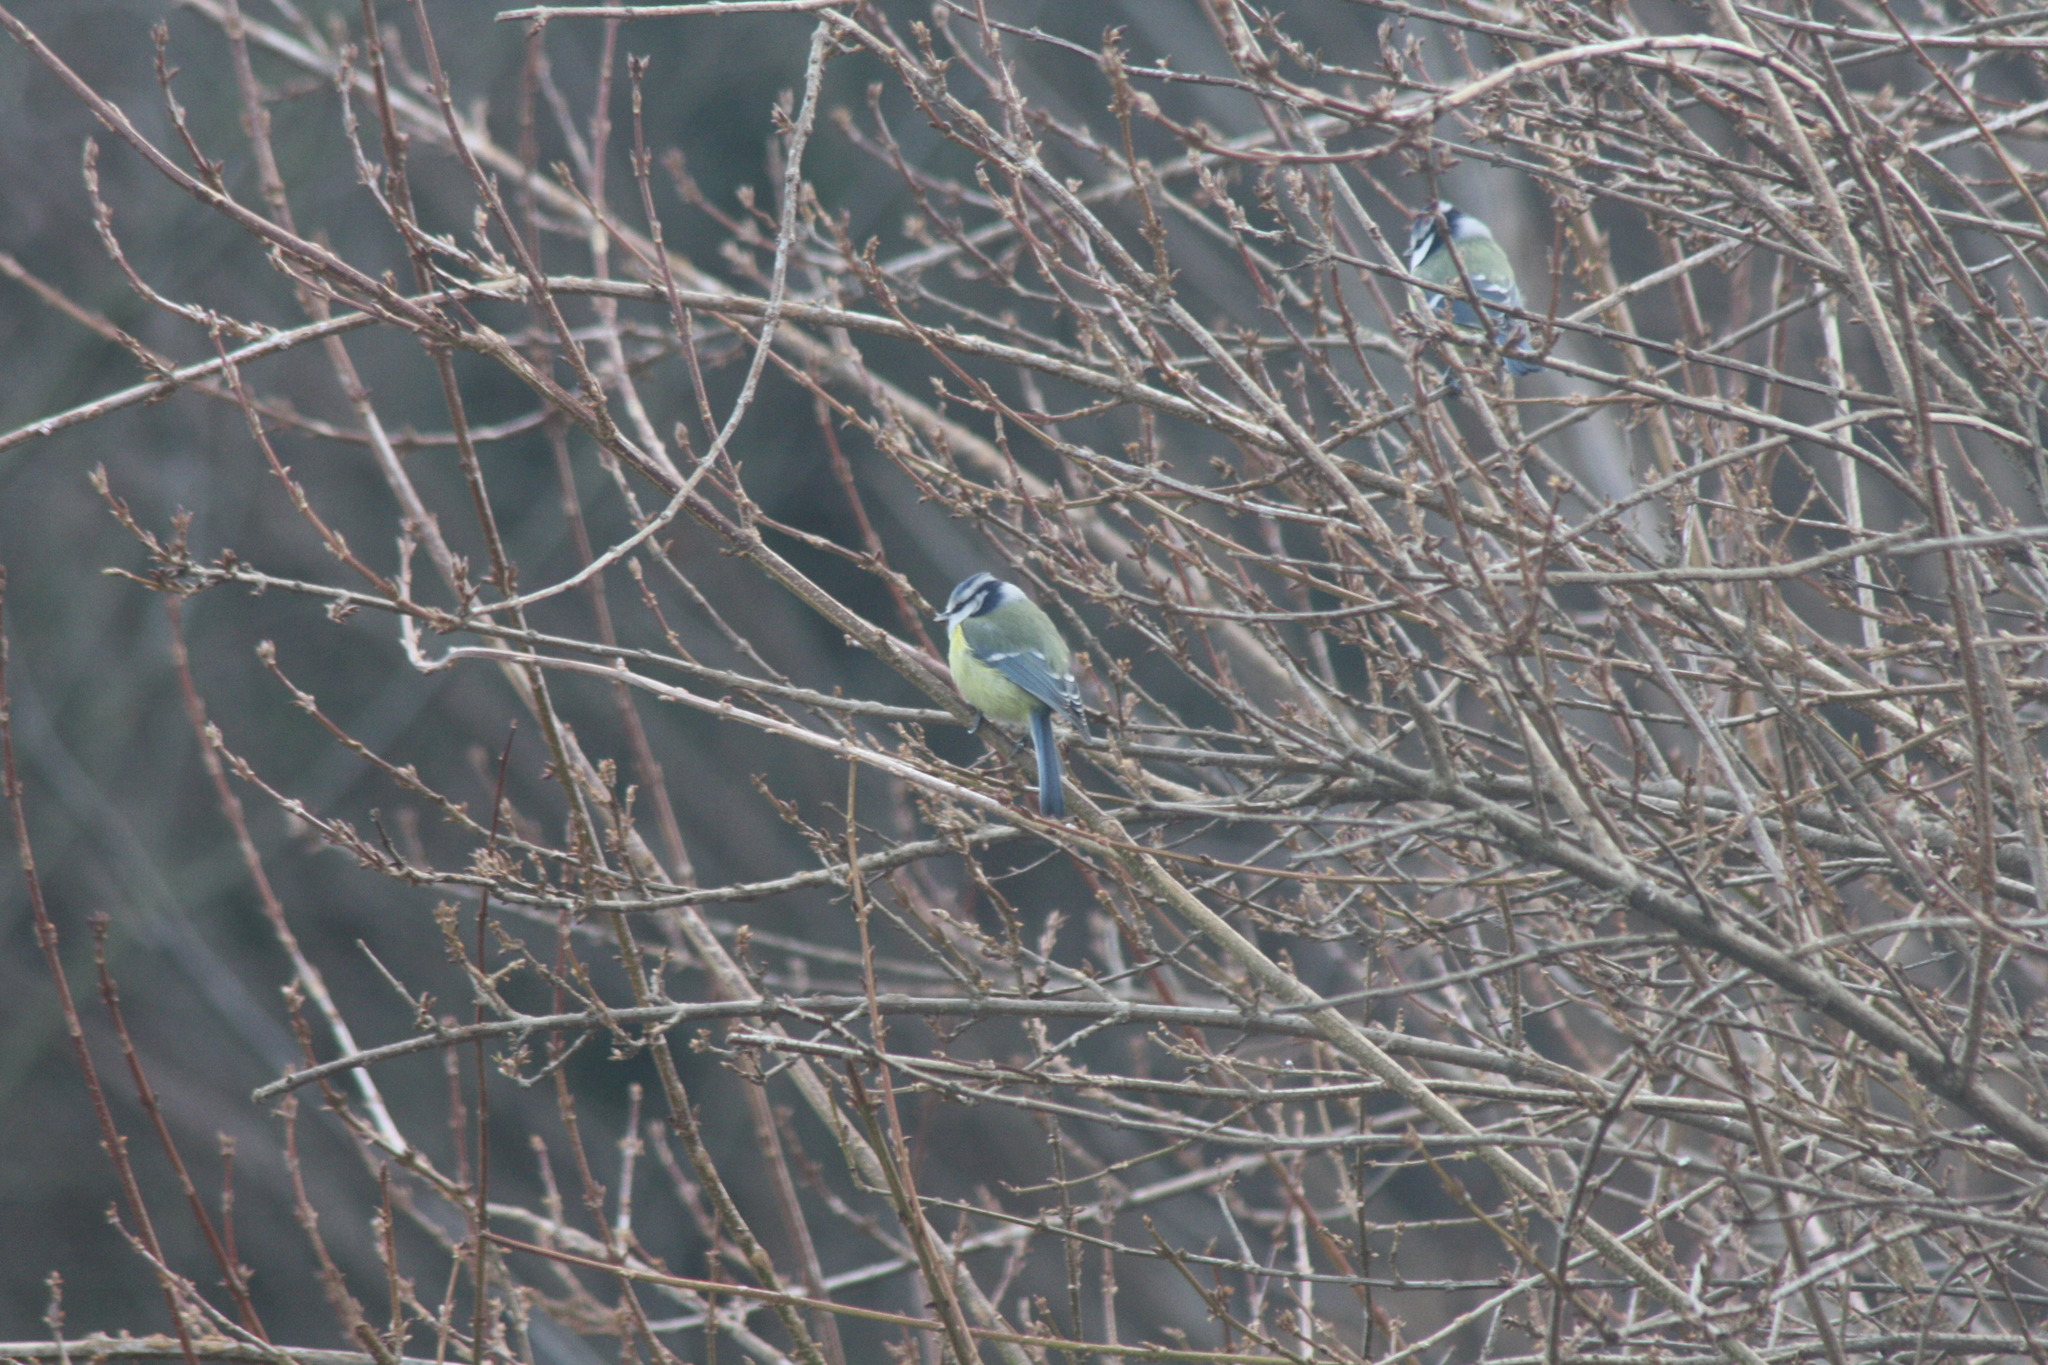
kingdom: Animalia
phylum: Chordata
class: Aves
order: Passeriformes
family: Paridae
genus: Cyanistes
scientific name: Cyanistes caeruleus
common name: Eurasian blue tit
